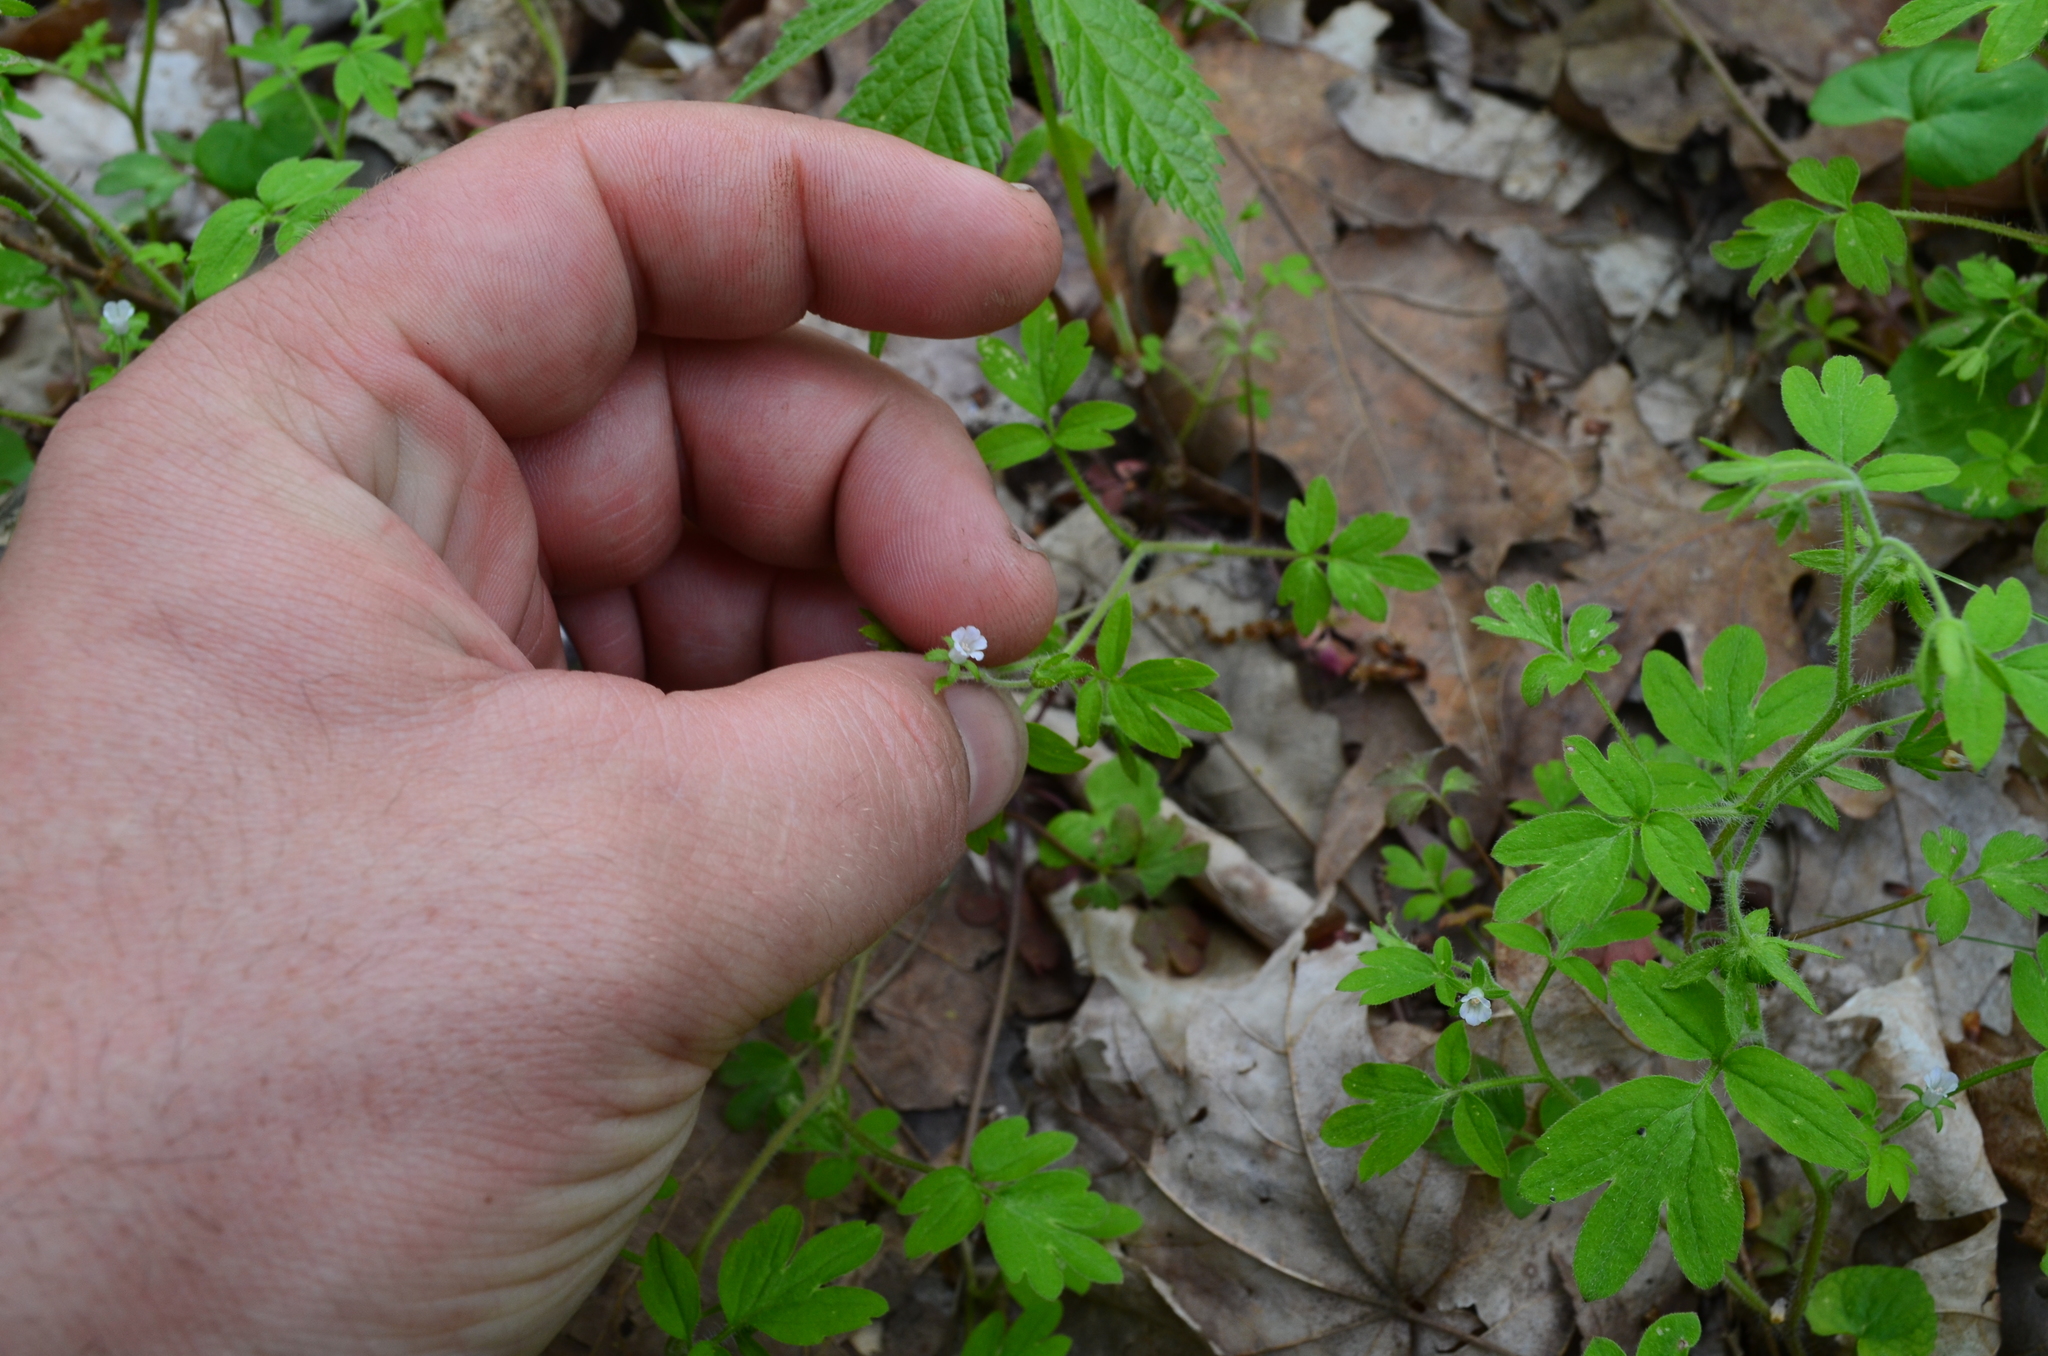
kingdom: Plantae
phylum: Tracheophyta
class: Magnoliopsida
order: Boraginales
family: Hydrophyllaceae
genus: Phacelia
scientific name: Phacelia ranunculacea
